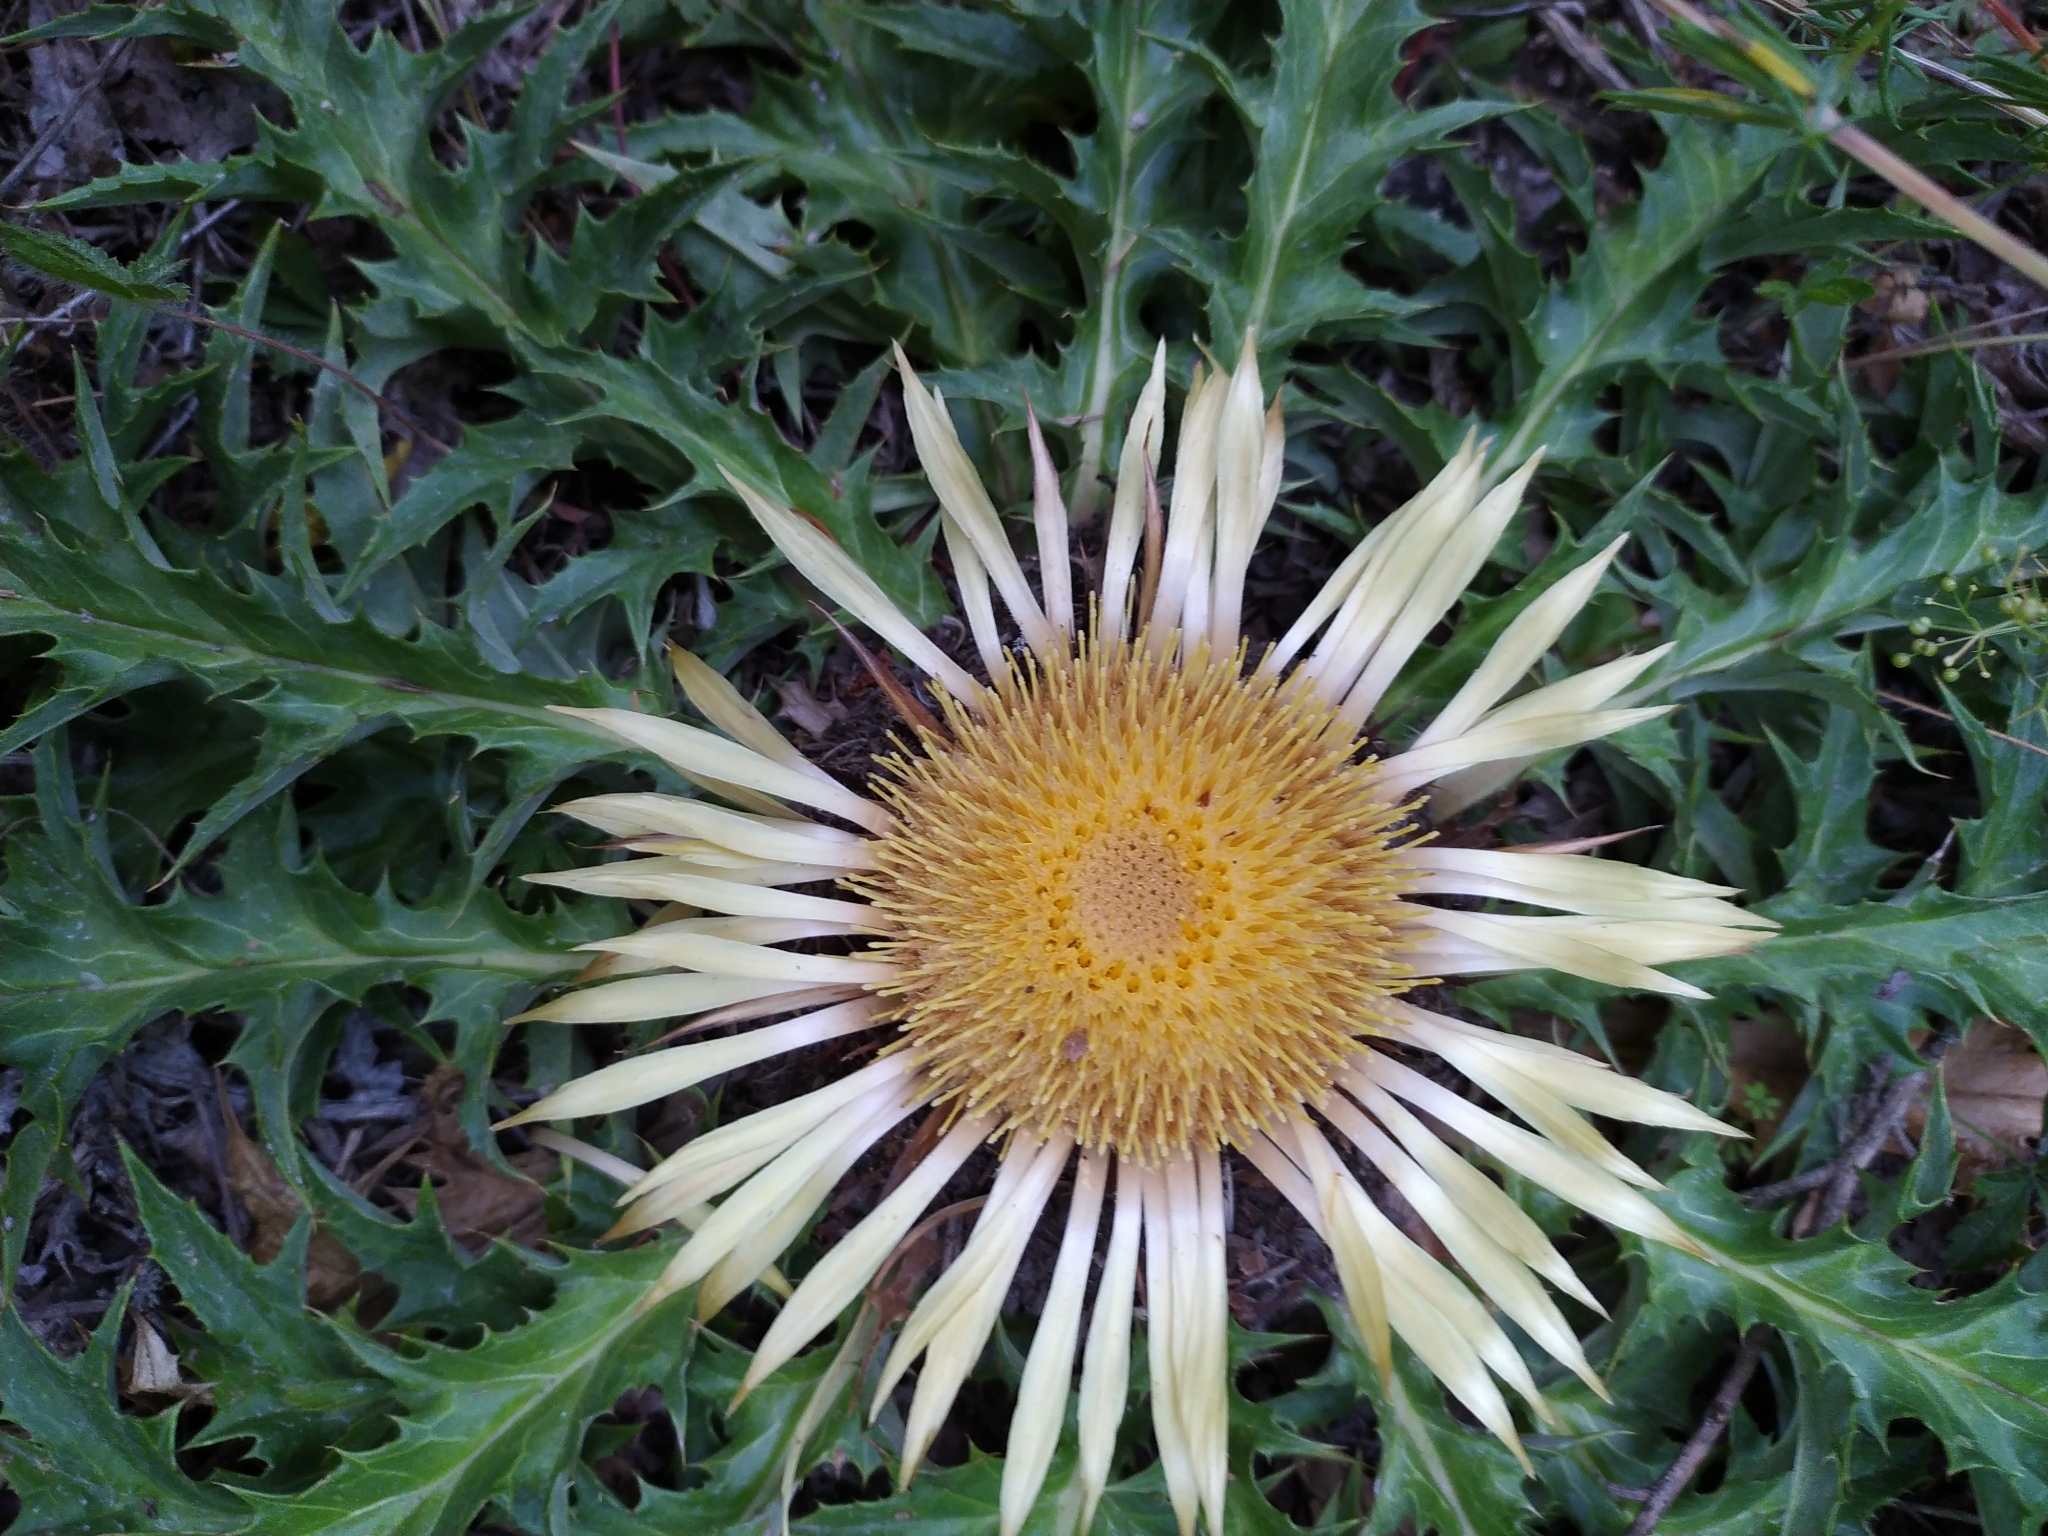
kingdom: Plantae
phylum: Tracheophyta
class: Magnoliopsida
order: Asterales
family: Asteraceae
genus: Carlina
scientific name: Carlina acaulis
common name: Stemless carline thistle
